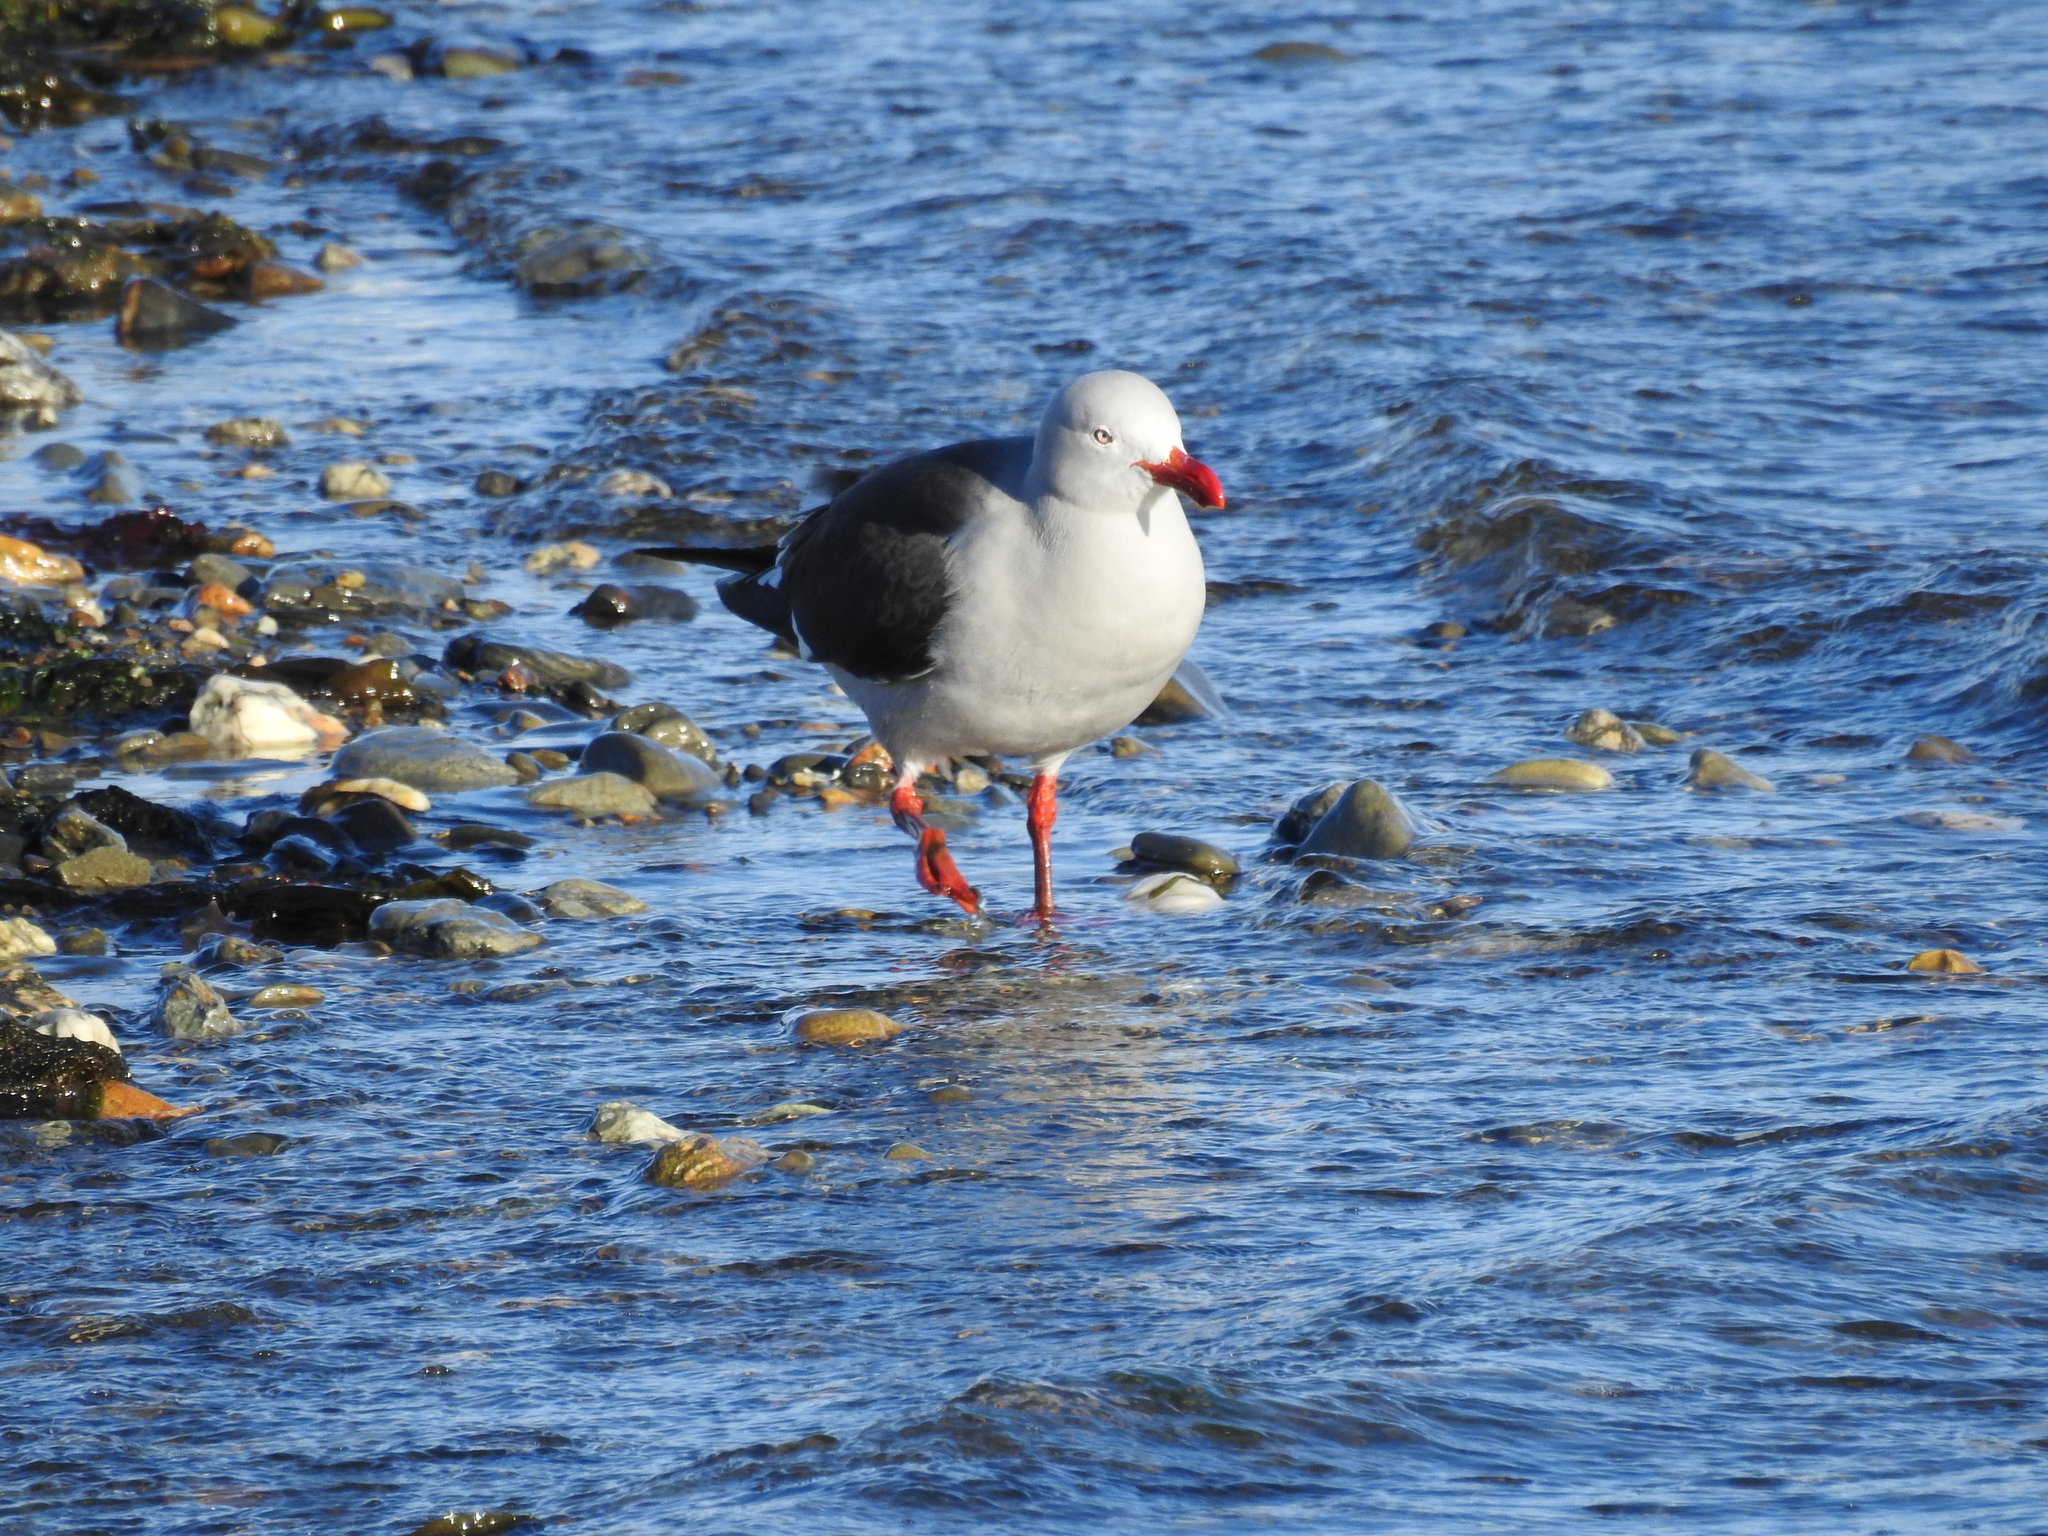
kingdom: Animalia
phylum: Chordata
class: Aves
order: Charadriiformes
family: Laridae
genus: Leucophaeus
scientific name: Leucophaeus scoresbii
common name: Dolphin gull
